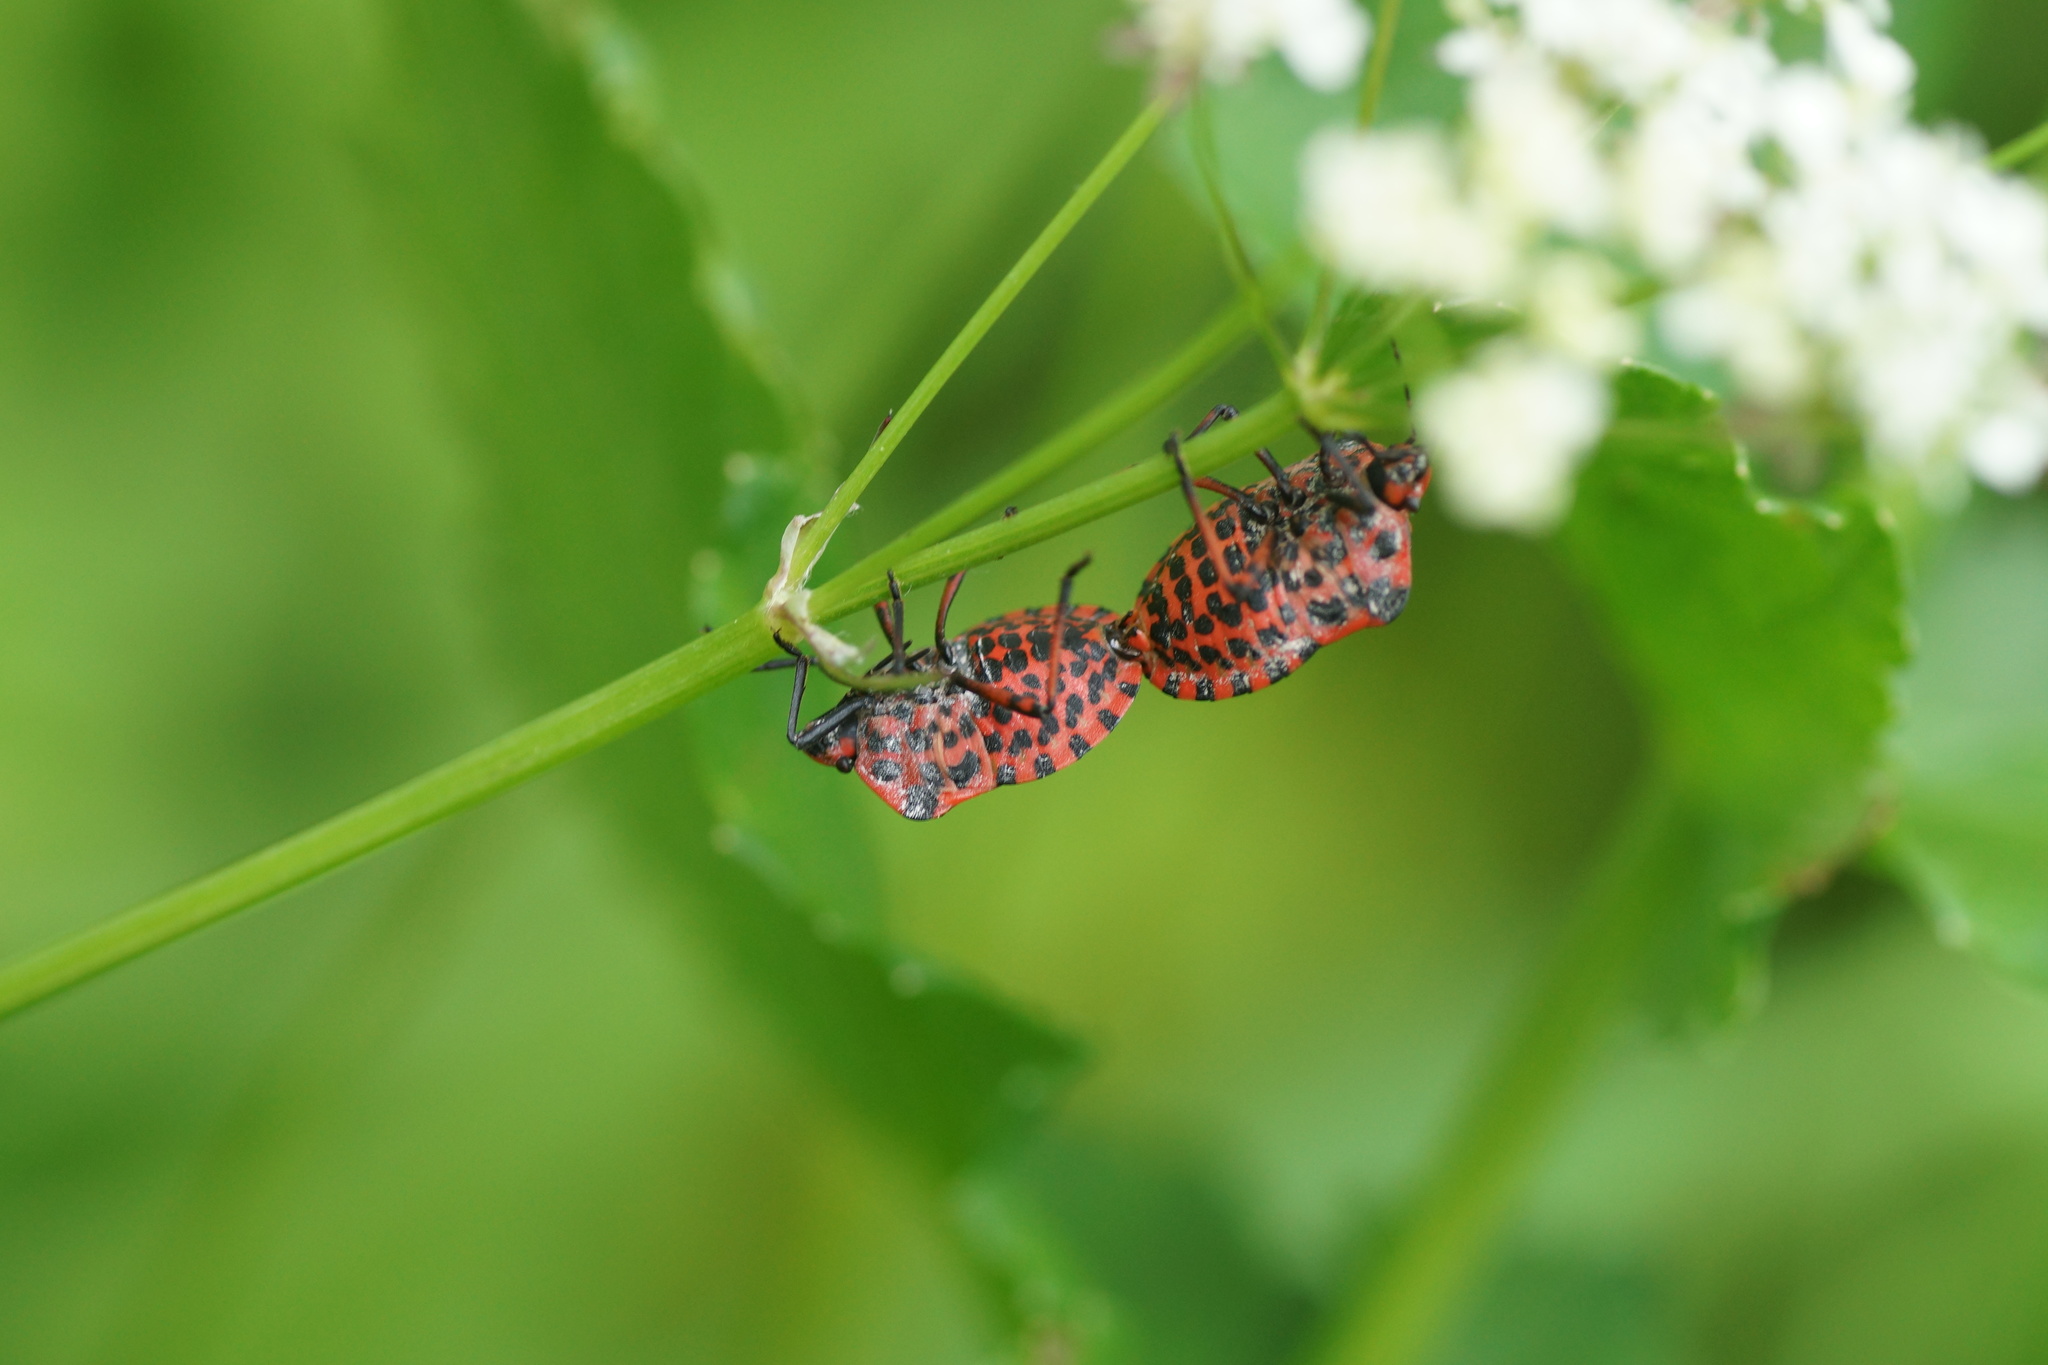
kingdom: Animalia
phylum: Arthropoda
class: Insecta
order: Hemiptera
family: Pentatomidae
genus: Graphosoma
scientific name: Graphosoma italicum
